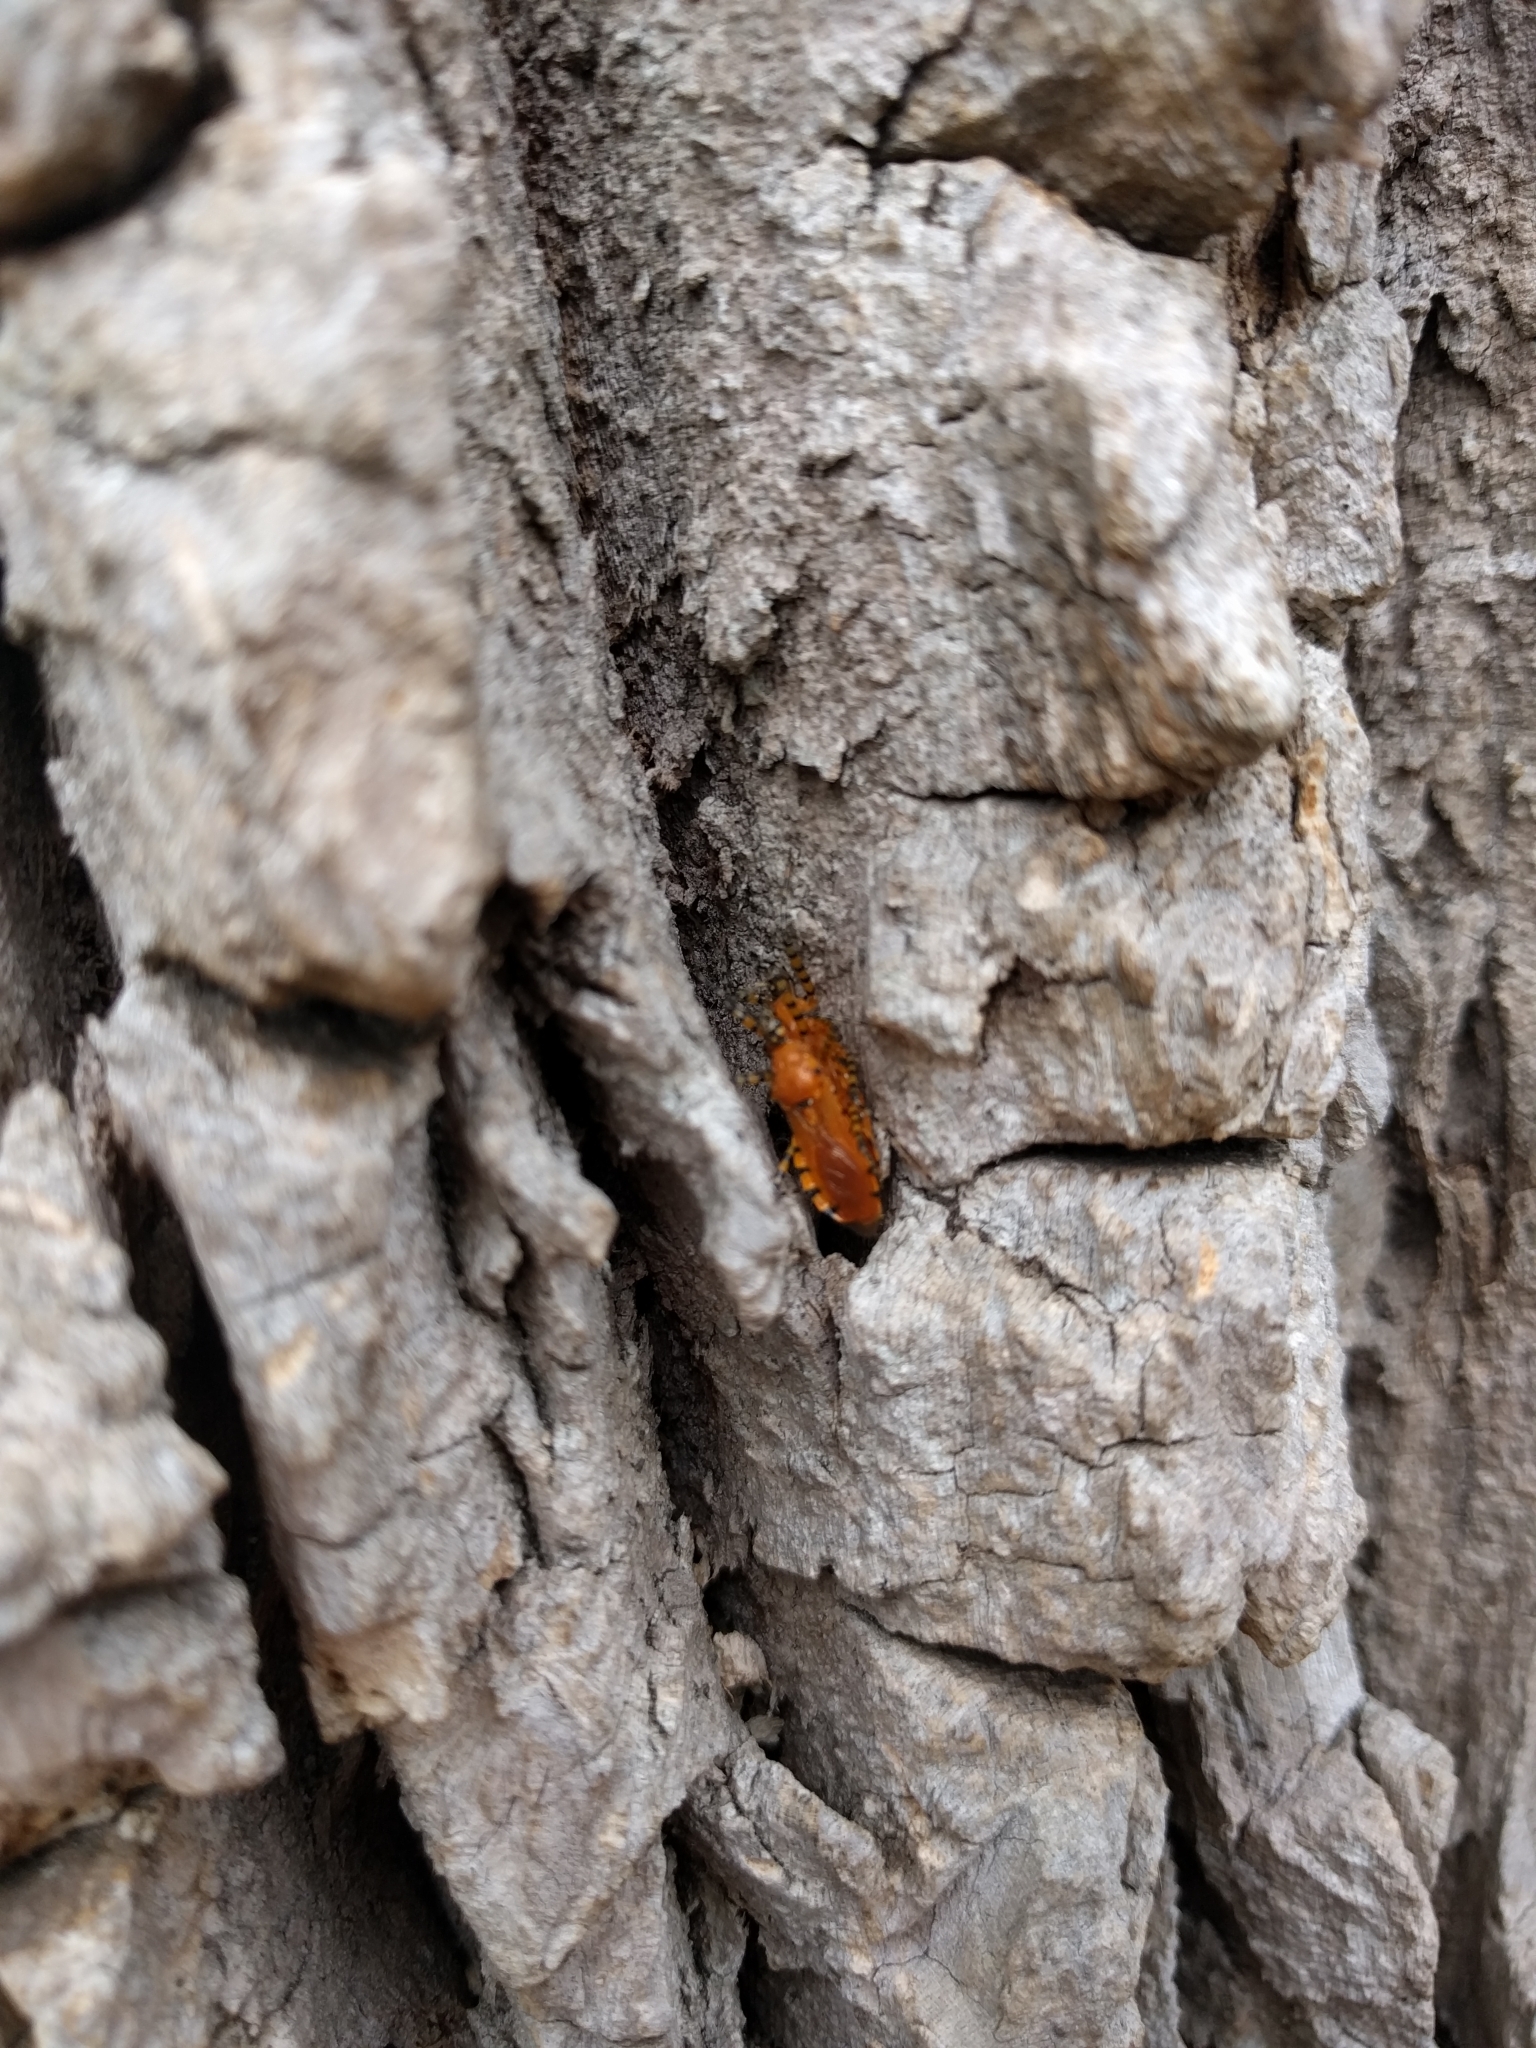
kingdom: Animalia
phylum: Arthropoda
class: Insecta
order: Hemiptera
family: Reduviidae
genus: Pselliopus
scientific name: Pselliopus barberi
